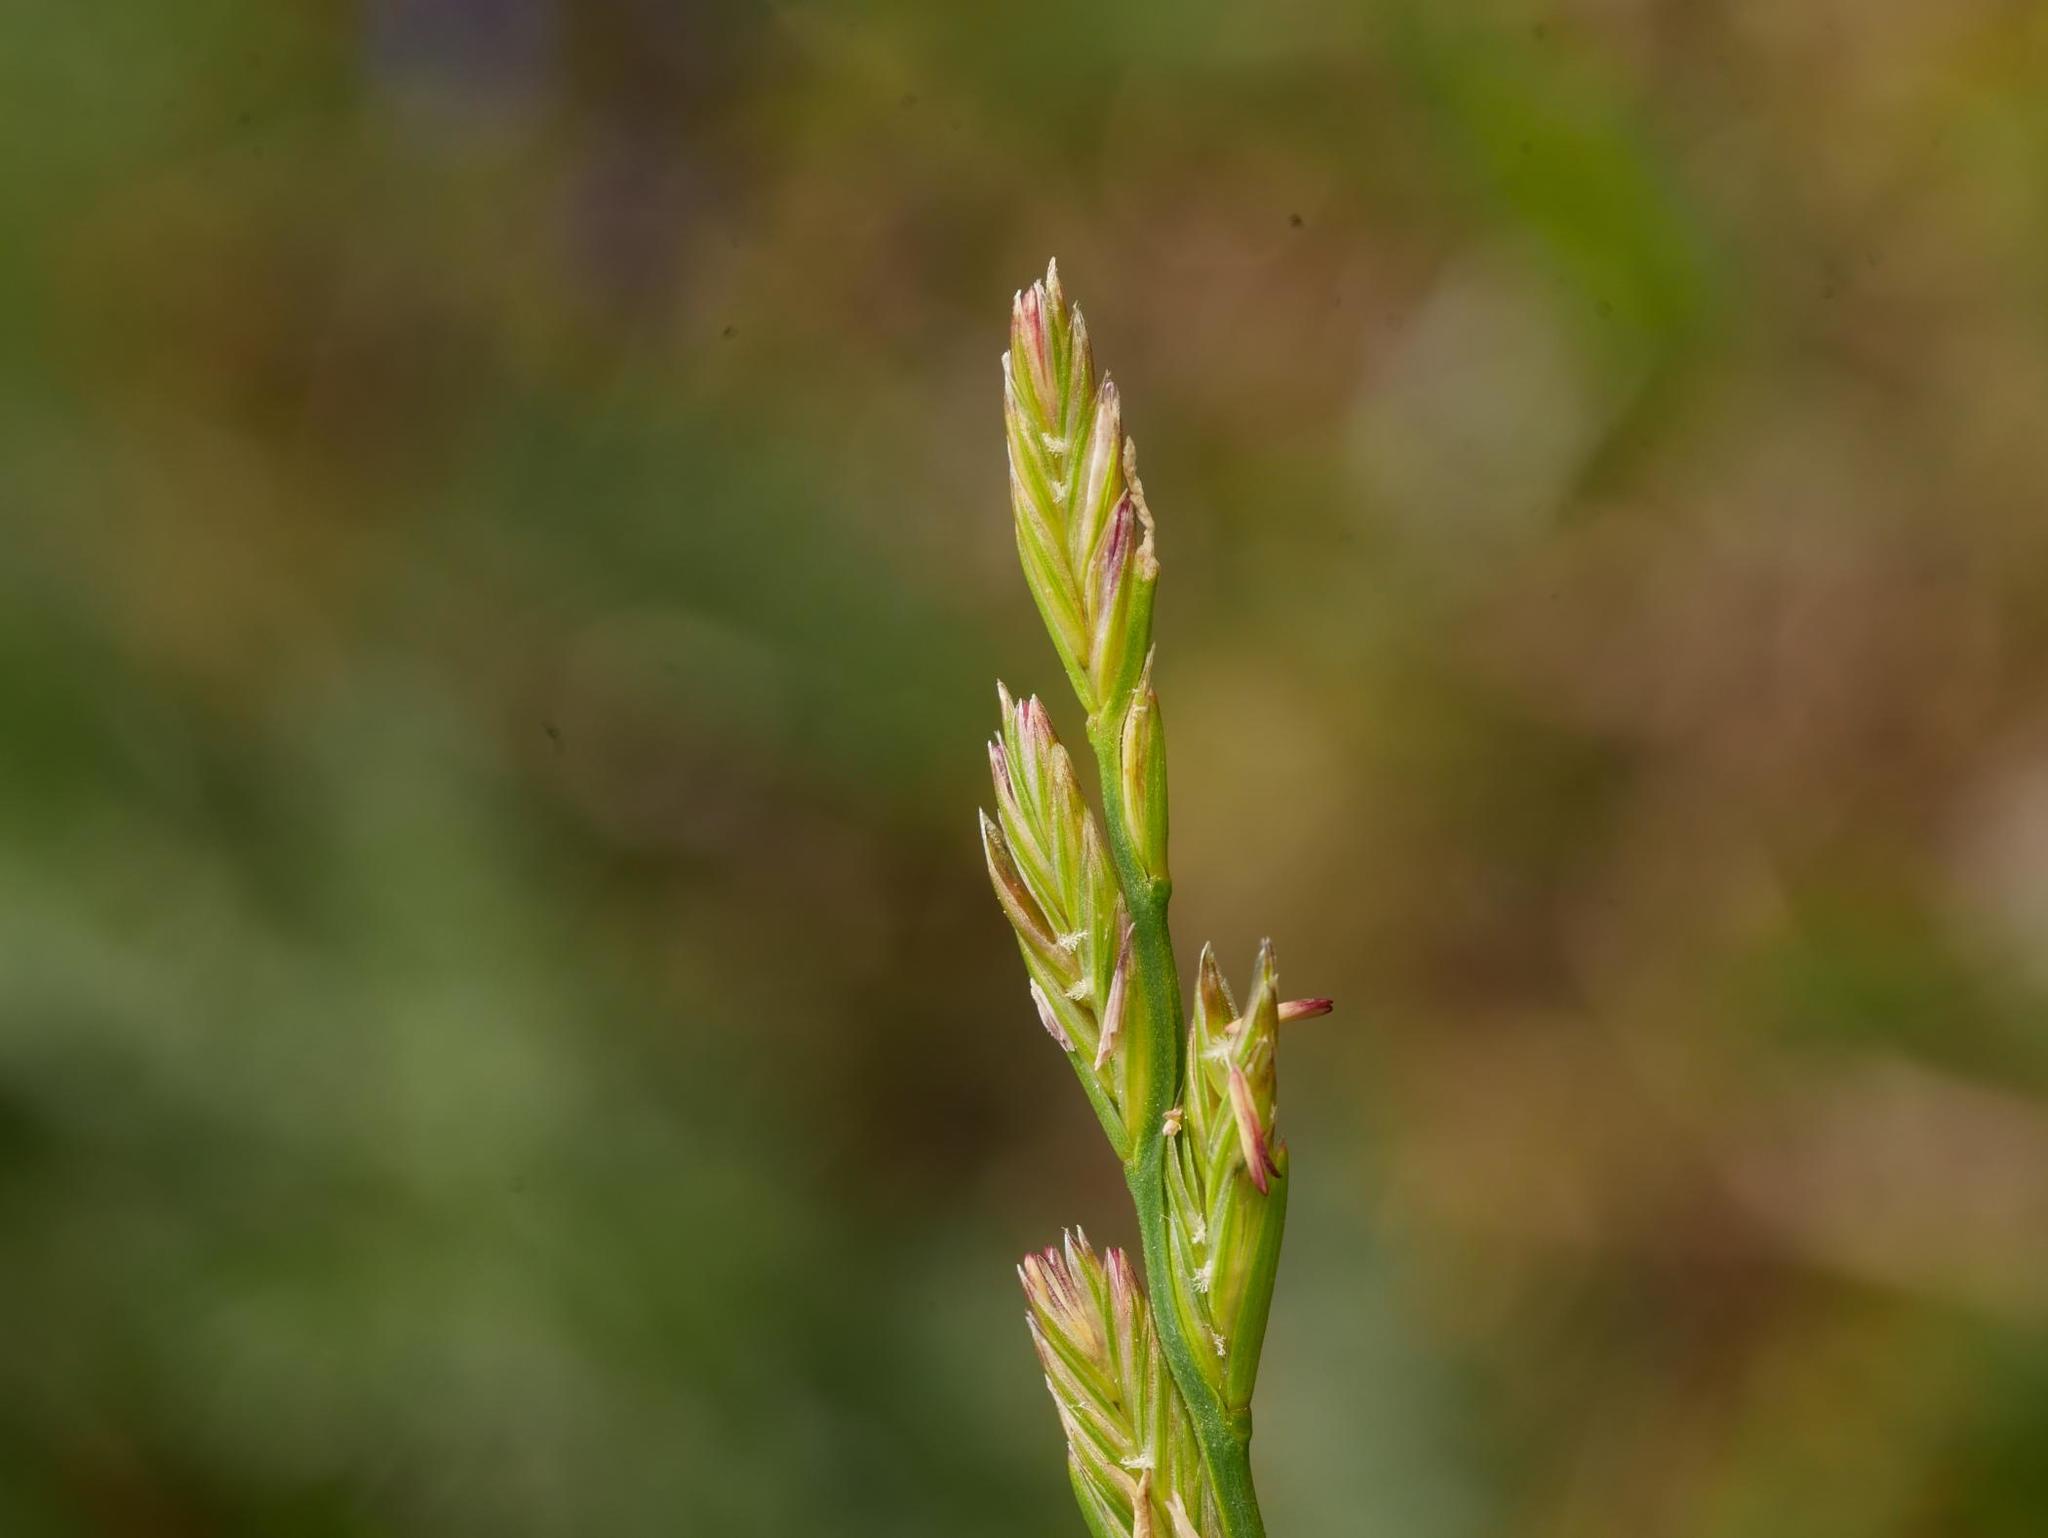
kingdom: Plantae
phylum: Tracheophyta
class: Liliopsida
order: Poales
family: Poaceae
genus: Lolium
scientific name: Lolium perenne
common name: Perennial ryegrass
